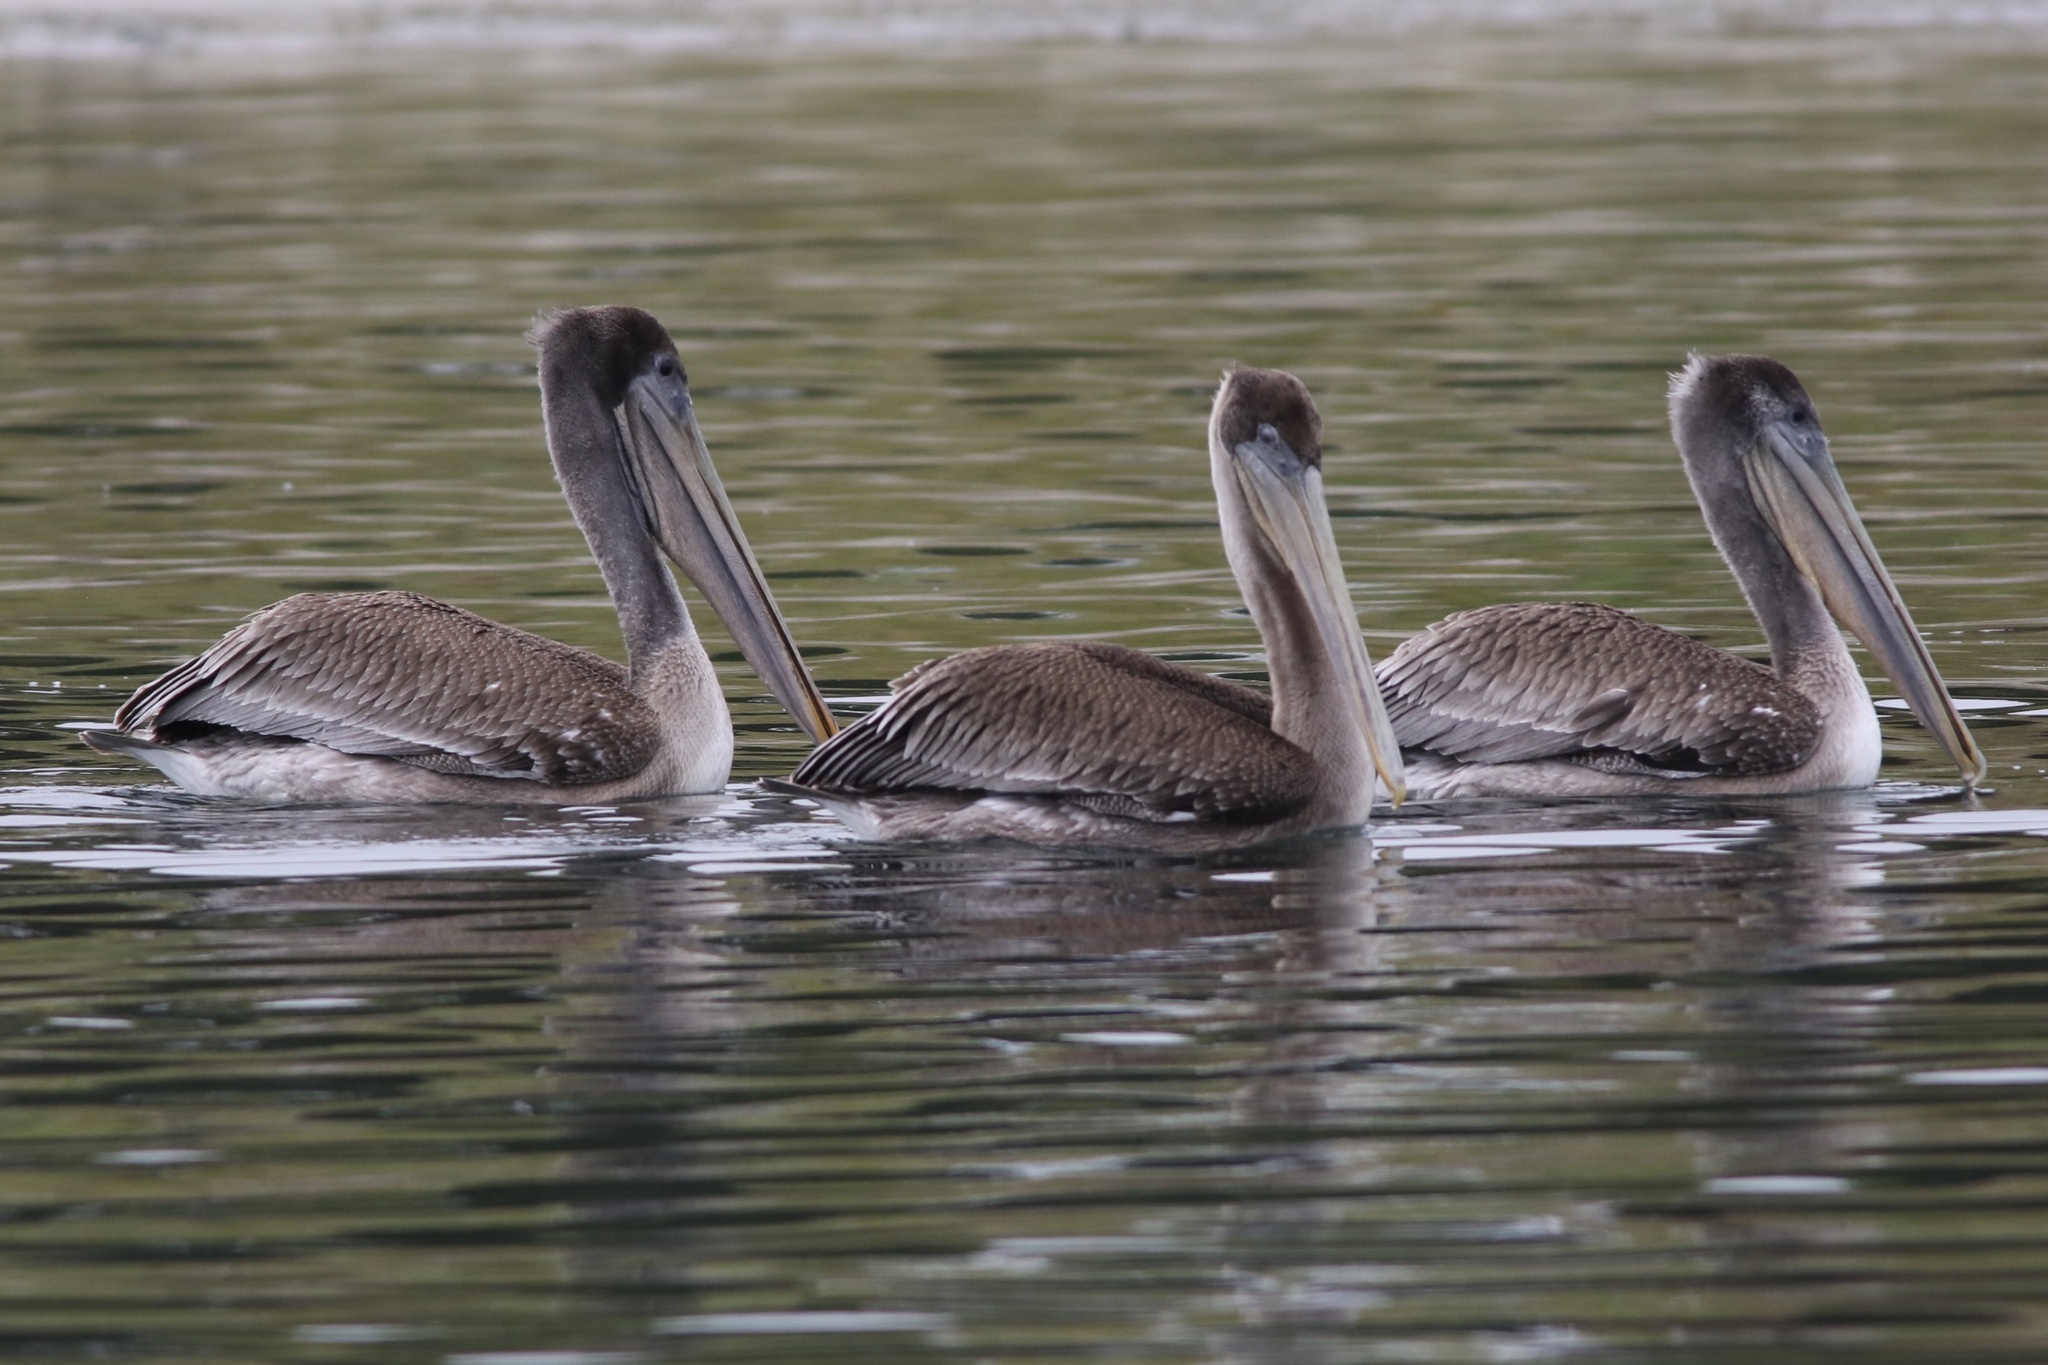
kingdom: Animalia
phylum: Chordata
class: Aves
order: Pelecaniformes
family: Pelecanidae
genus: Pelecanus
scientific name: Pelecanus occidentalis
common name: Brown pelican
